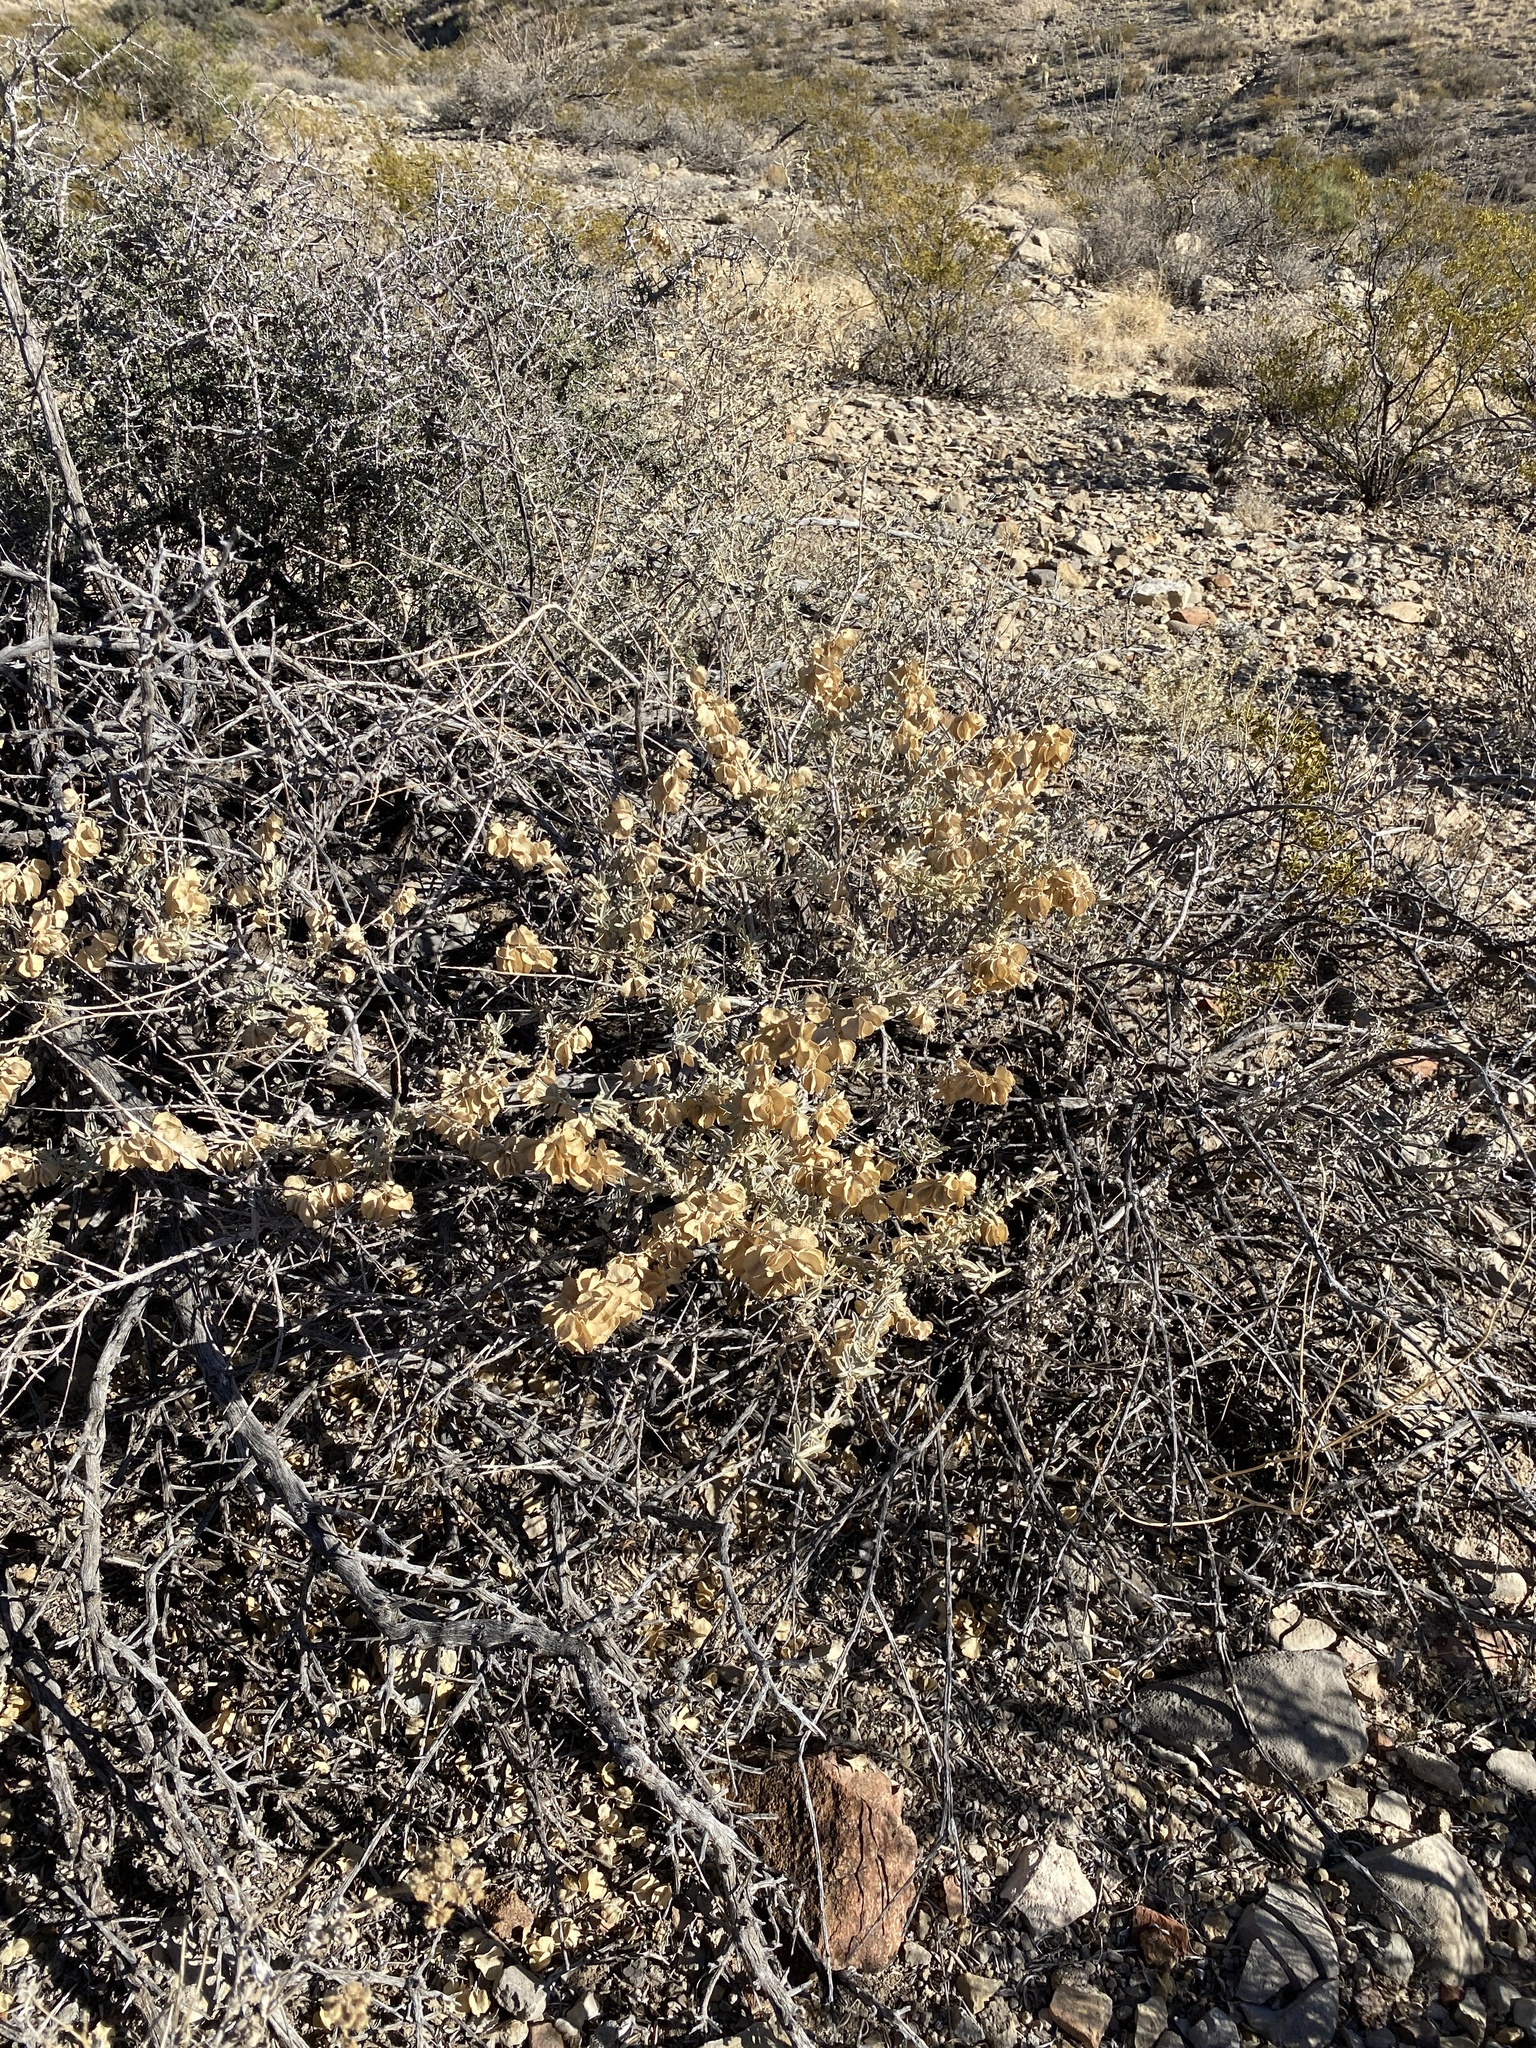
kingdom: Plantae
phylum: Tracheophyta
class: Magnoliopsida
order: Caryophyllales
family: Amaranthaceae
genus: Atriplex
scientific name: Atriplex canescens
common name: Four-wing saltbush
